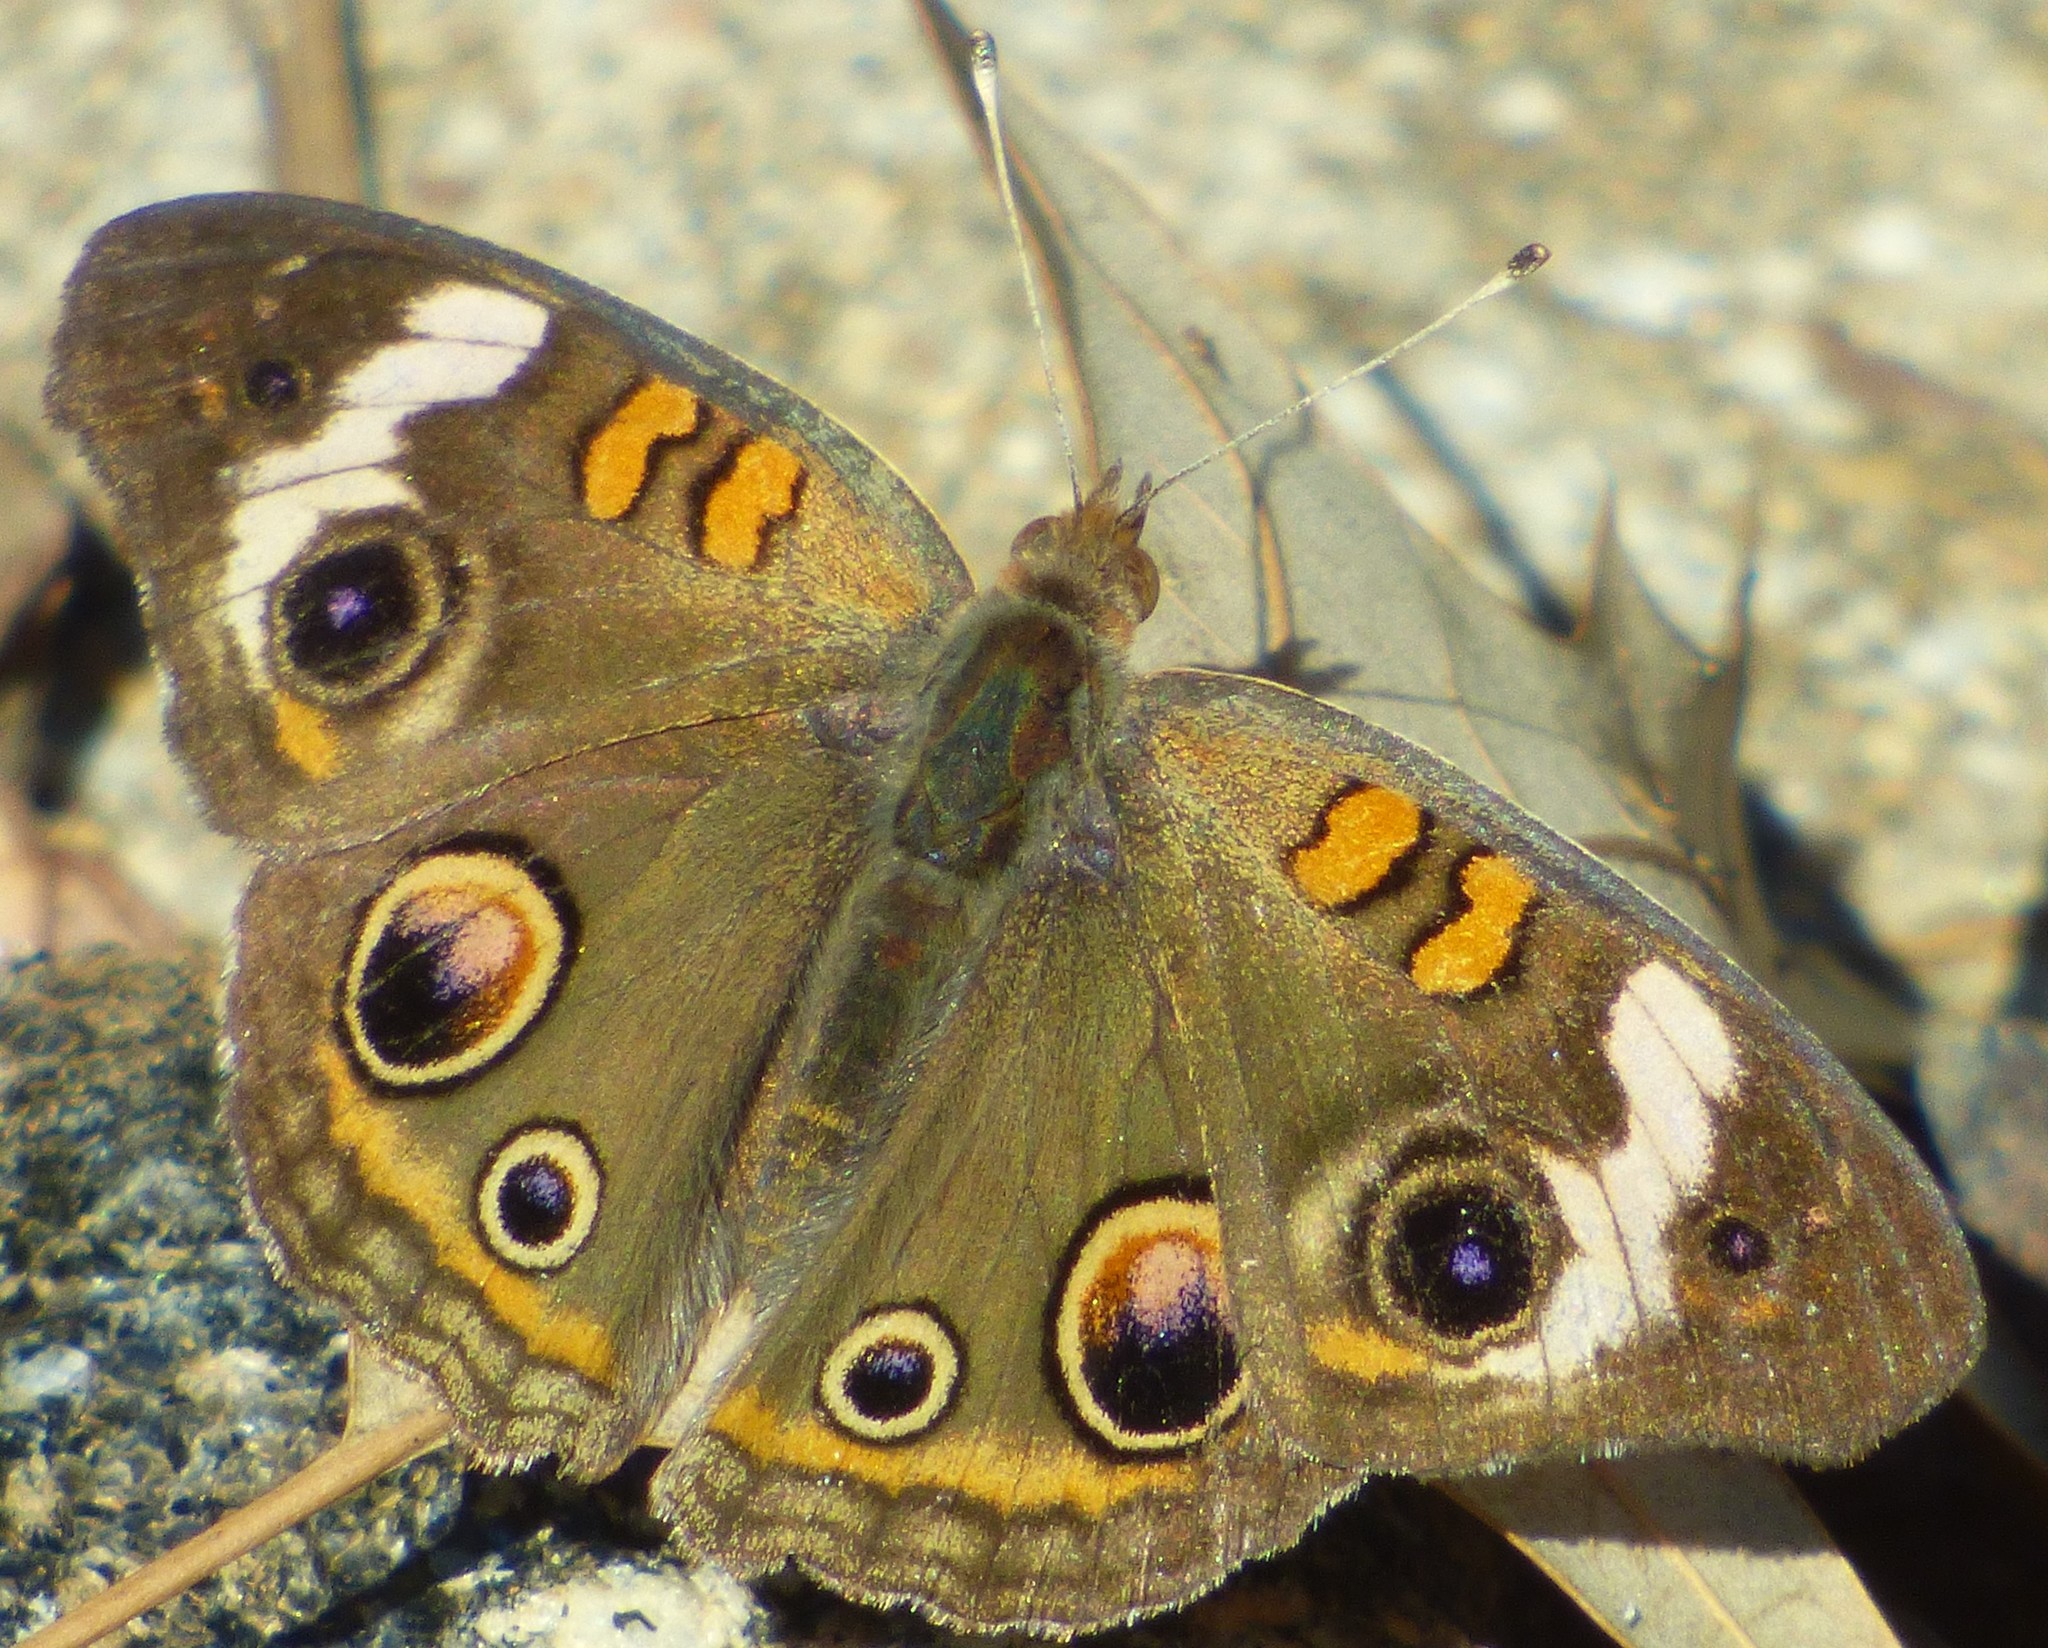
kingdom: Animalia
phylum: Arthropoda
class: Insecta
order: Lepidoptera
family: Nymphalidae
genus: Junonia
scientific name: Junonia coenia
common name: Common buckeye
